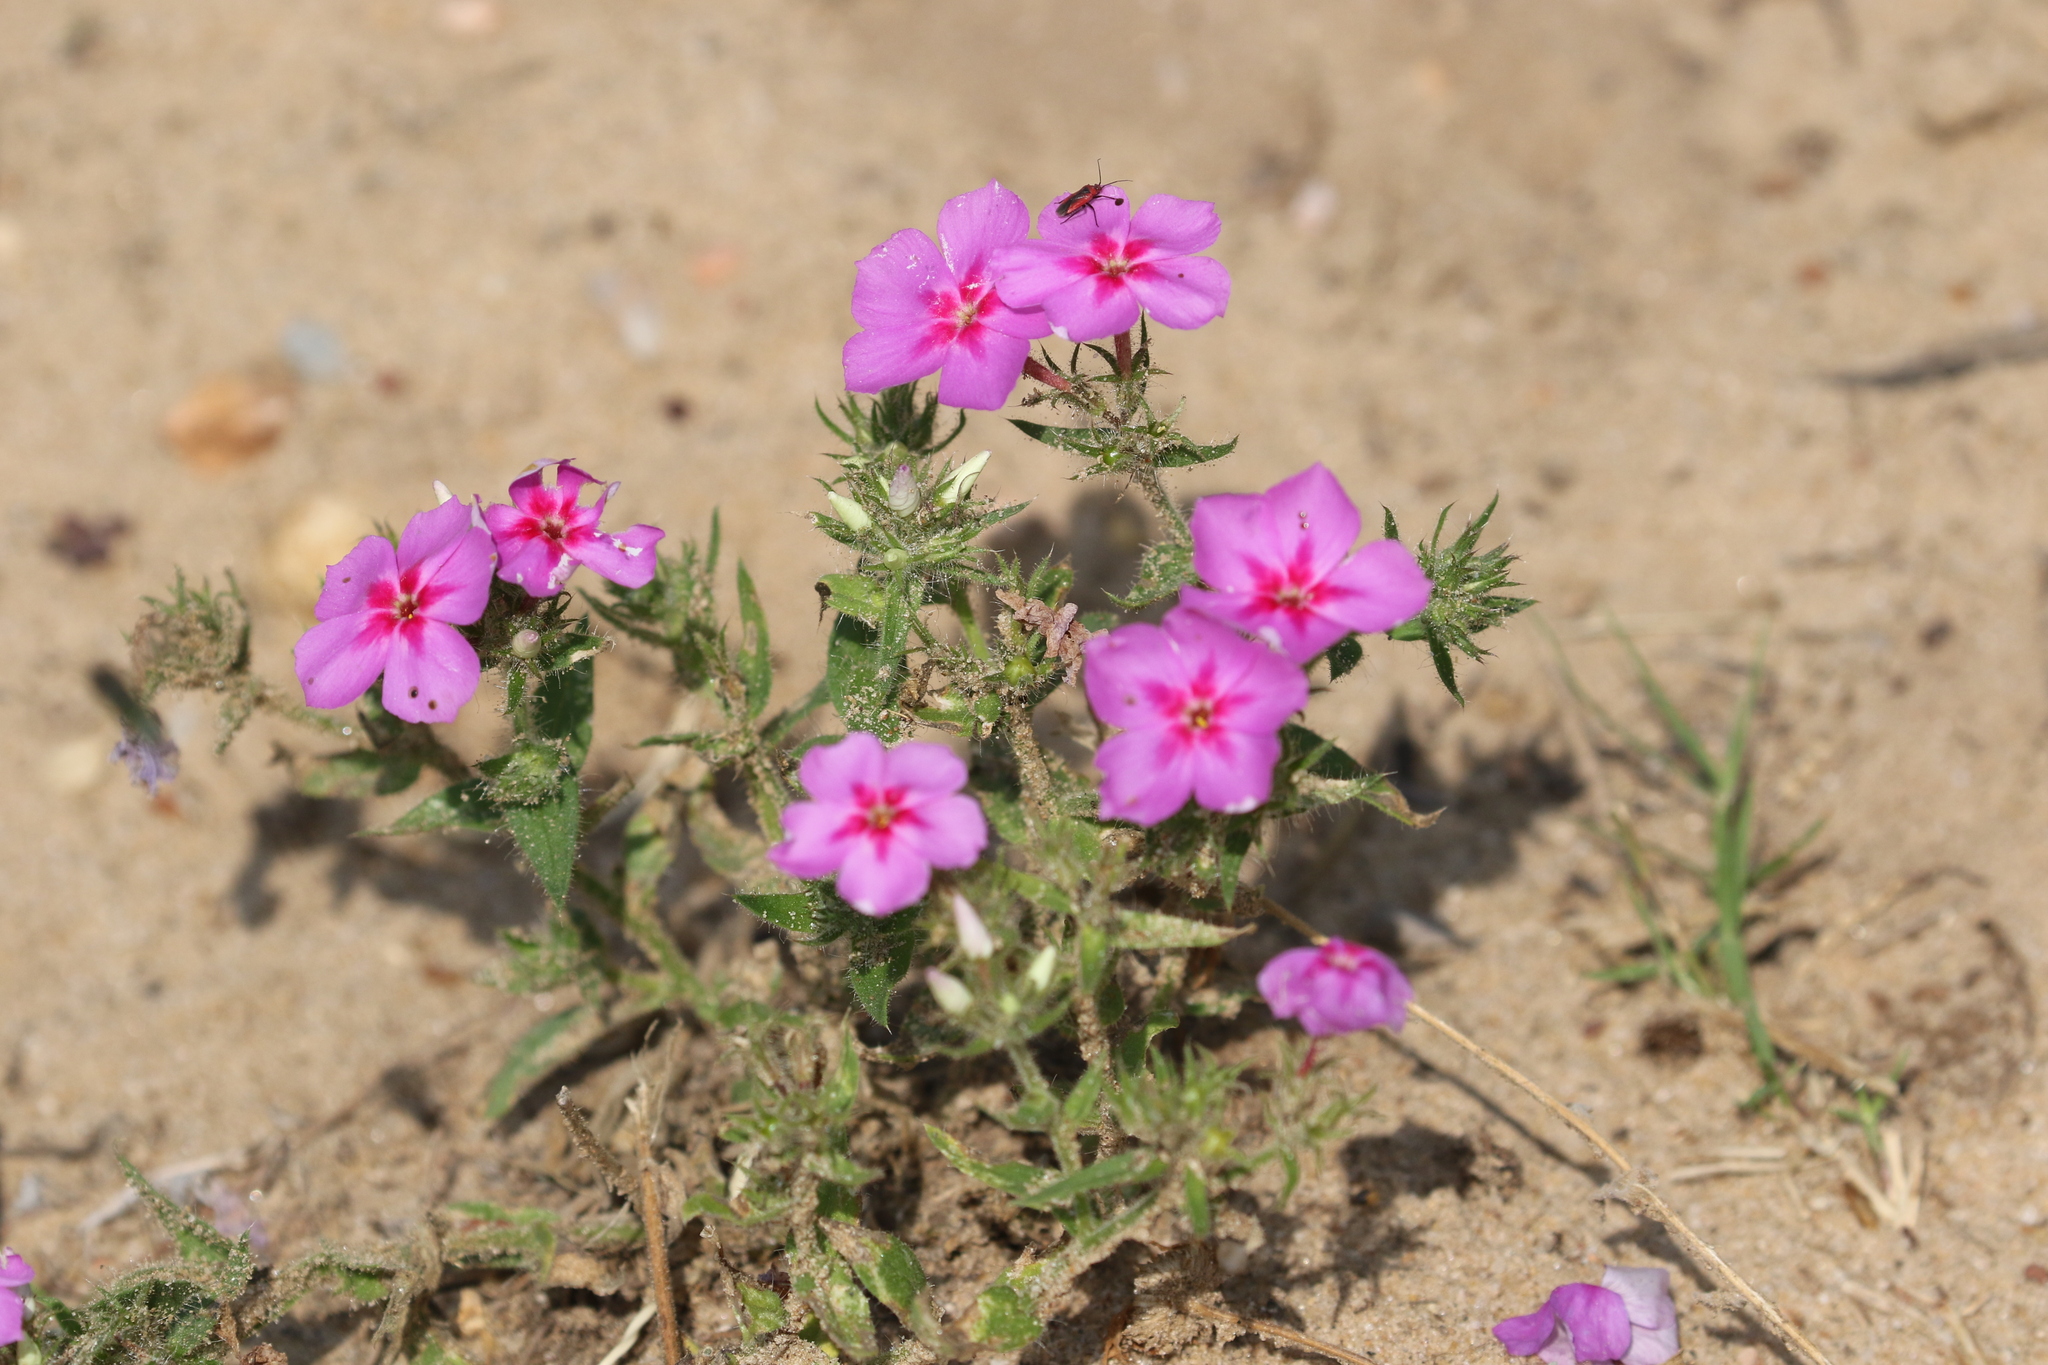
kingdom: Plantae
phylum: Tracheophyta
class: Magnoliopsida
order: Ericales
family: Polemoniaceae
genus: Phlox
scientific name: Phlox drummondii
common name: Drummond's phlox
